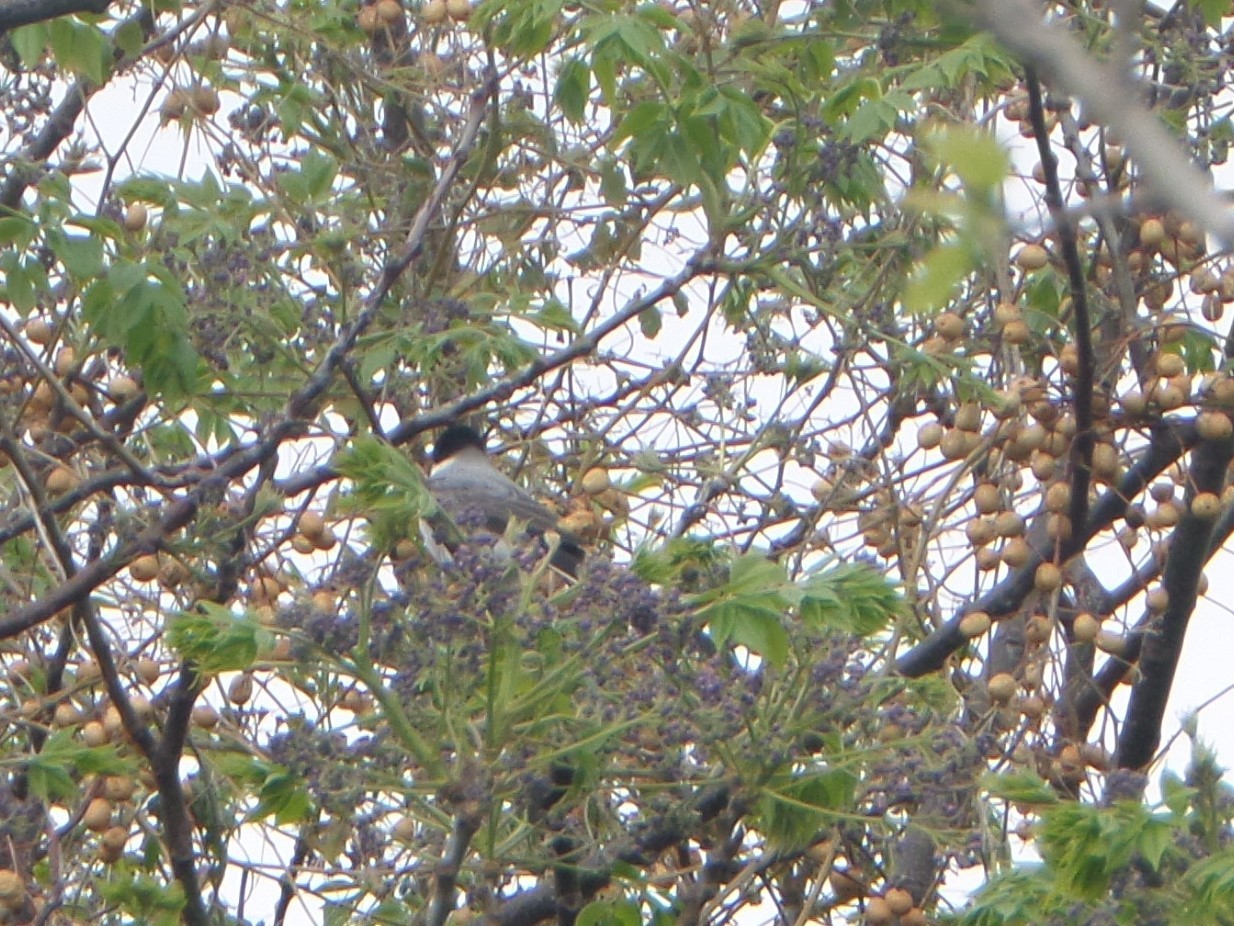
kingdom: Animalia
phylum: Chordata
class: Aves
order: Passeriformes
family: Tyrannidae
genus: Tyrannus
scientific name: Tyrannus savana
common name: Fork-tailed flycatcher
